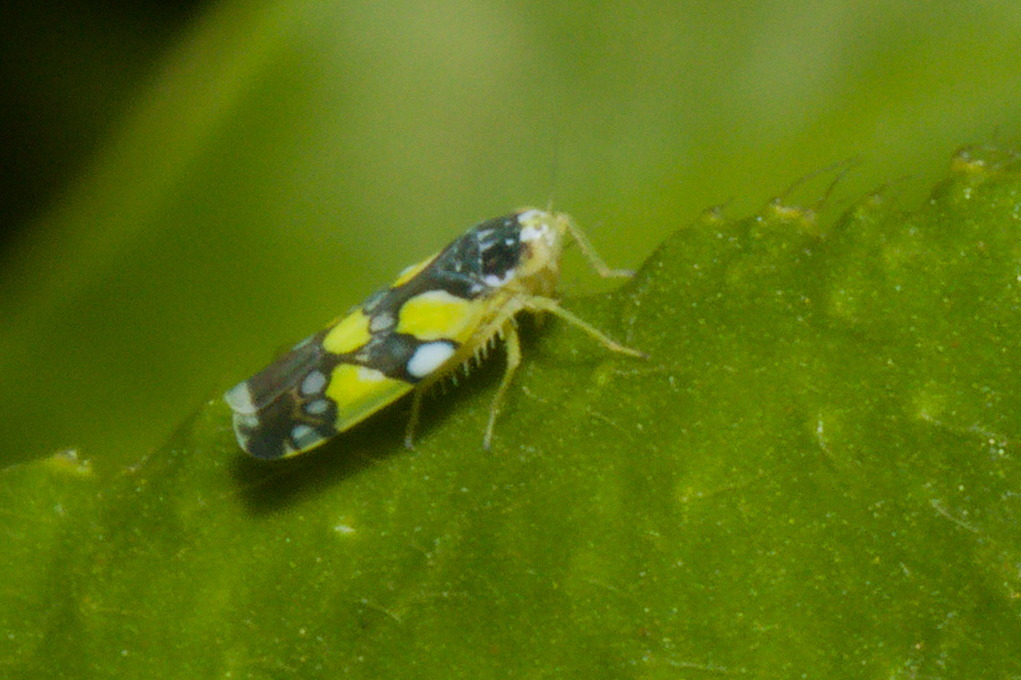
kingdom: Animalia
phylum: Arthropoda
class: Insecta
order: Hemiptera
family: Cicadellidae
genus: Protalebrella
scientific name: Protalebrella brasiliensis
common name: Brasilian leafhopper
